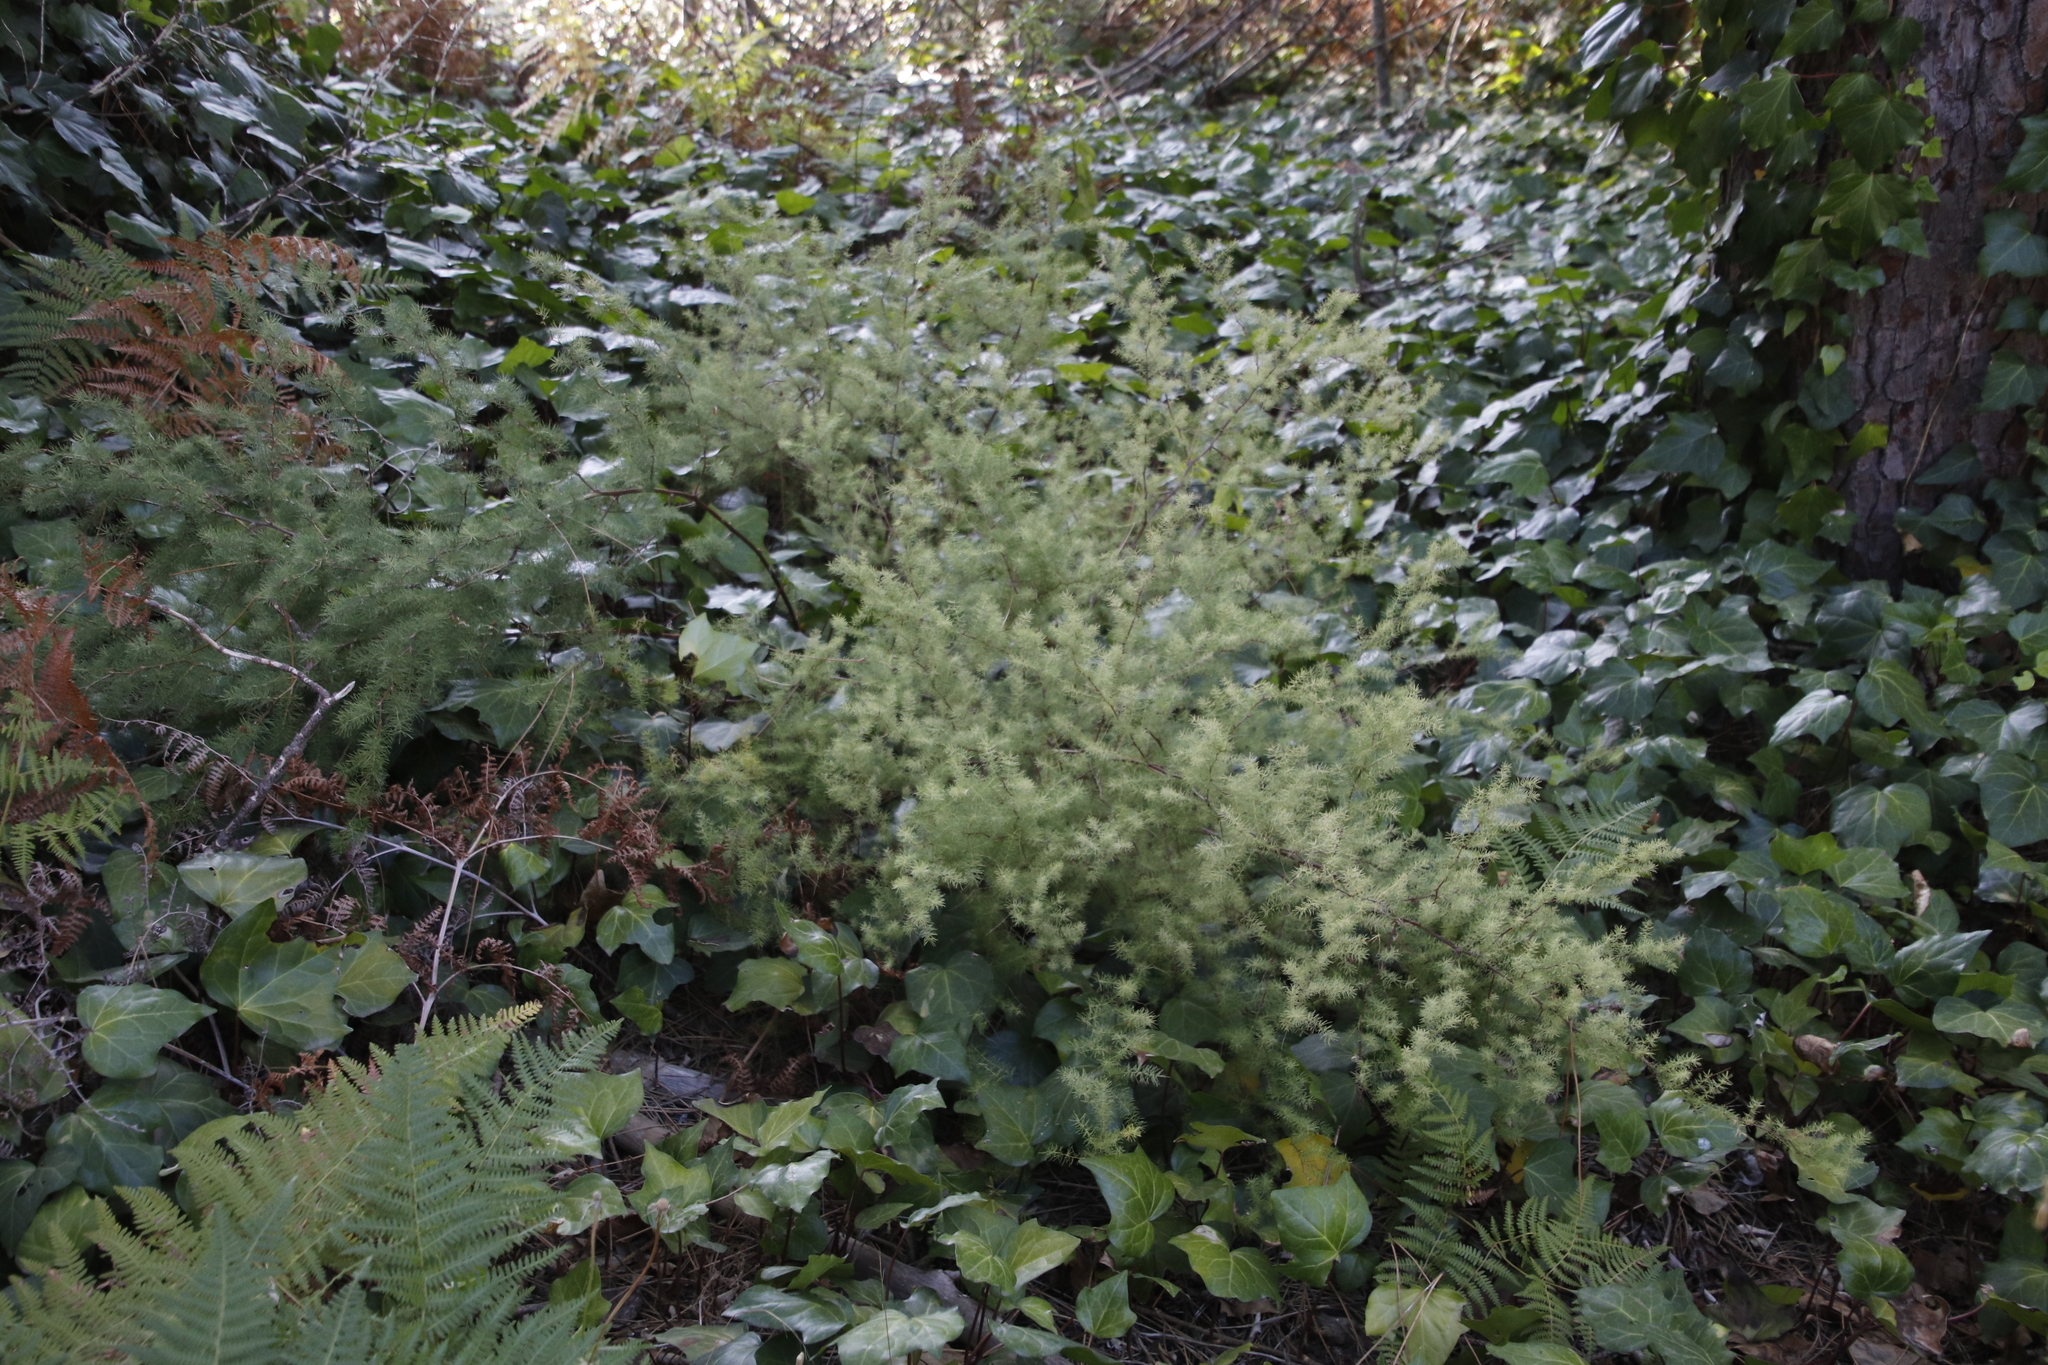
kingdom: Plantae
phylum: Tracheophyta
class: Liliopsida
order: Asparagales
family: Asparagaceae
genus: Asparagus
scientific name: Asparagus rubicundus
